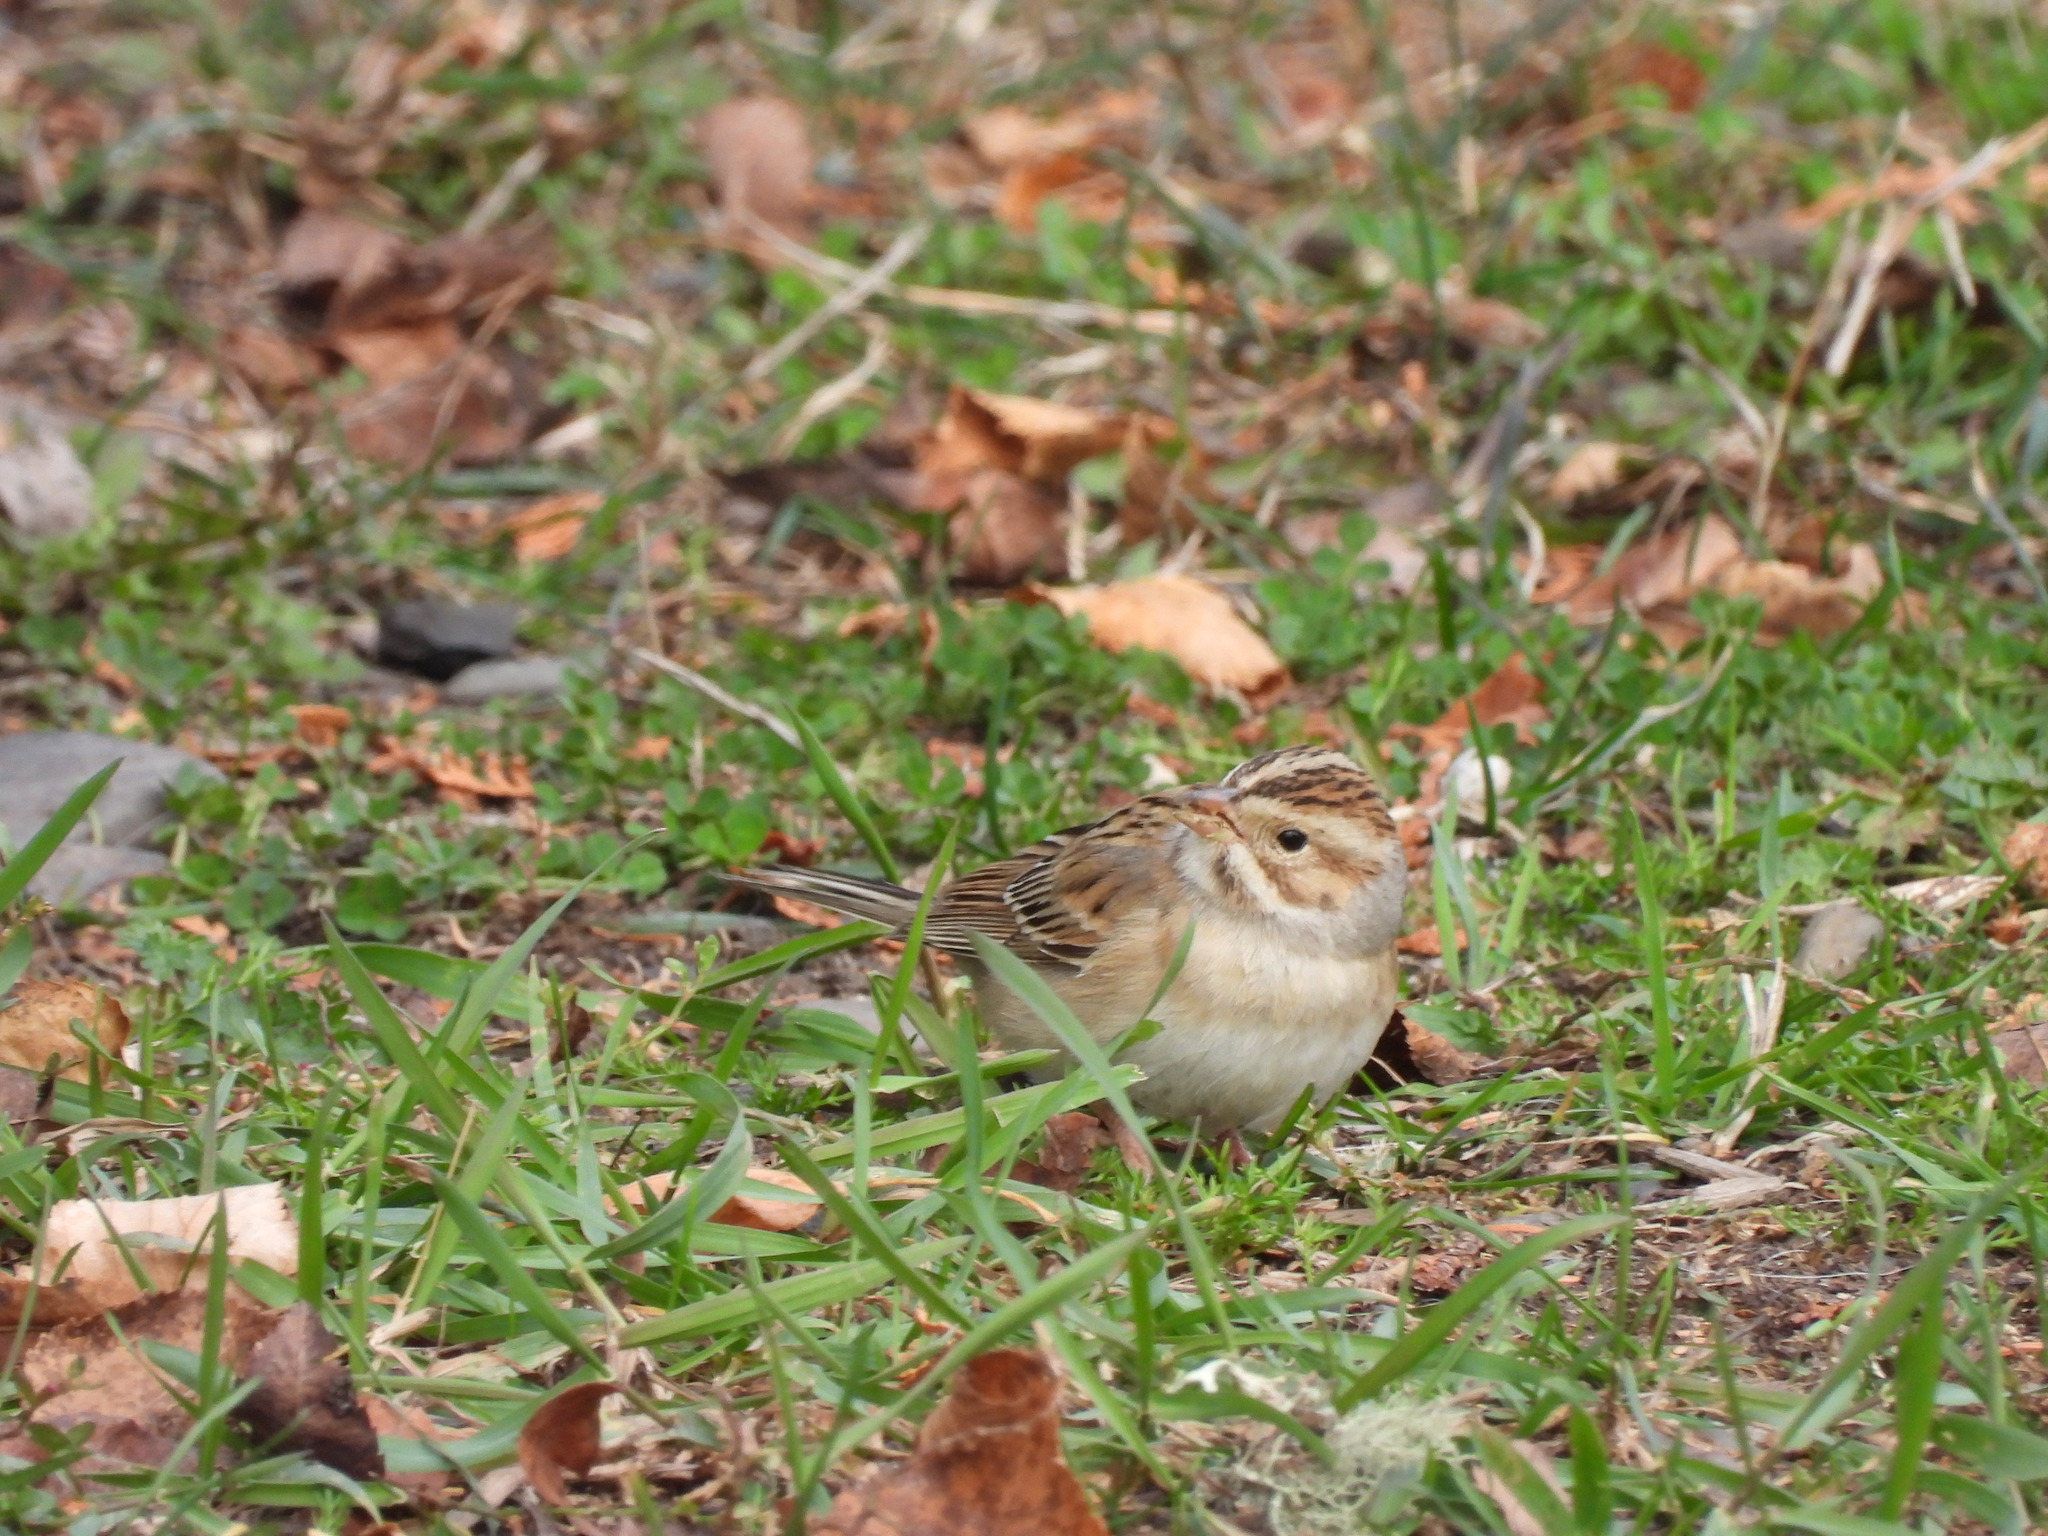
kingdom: Animalia
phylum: Chordata
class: Aves
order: Passeriformes
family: Passerellidae
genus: Spizella
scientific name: Spizella pallida
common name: Clay-colored sparrow
